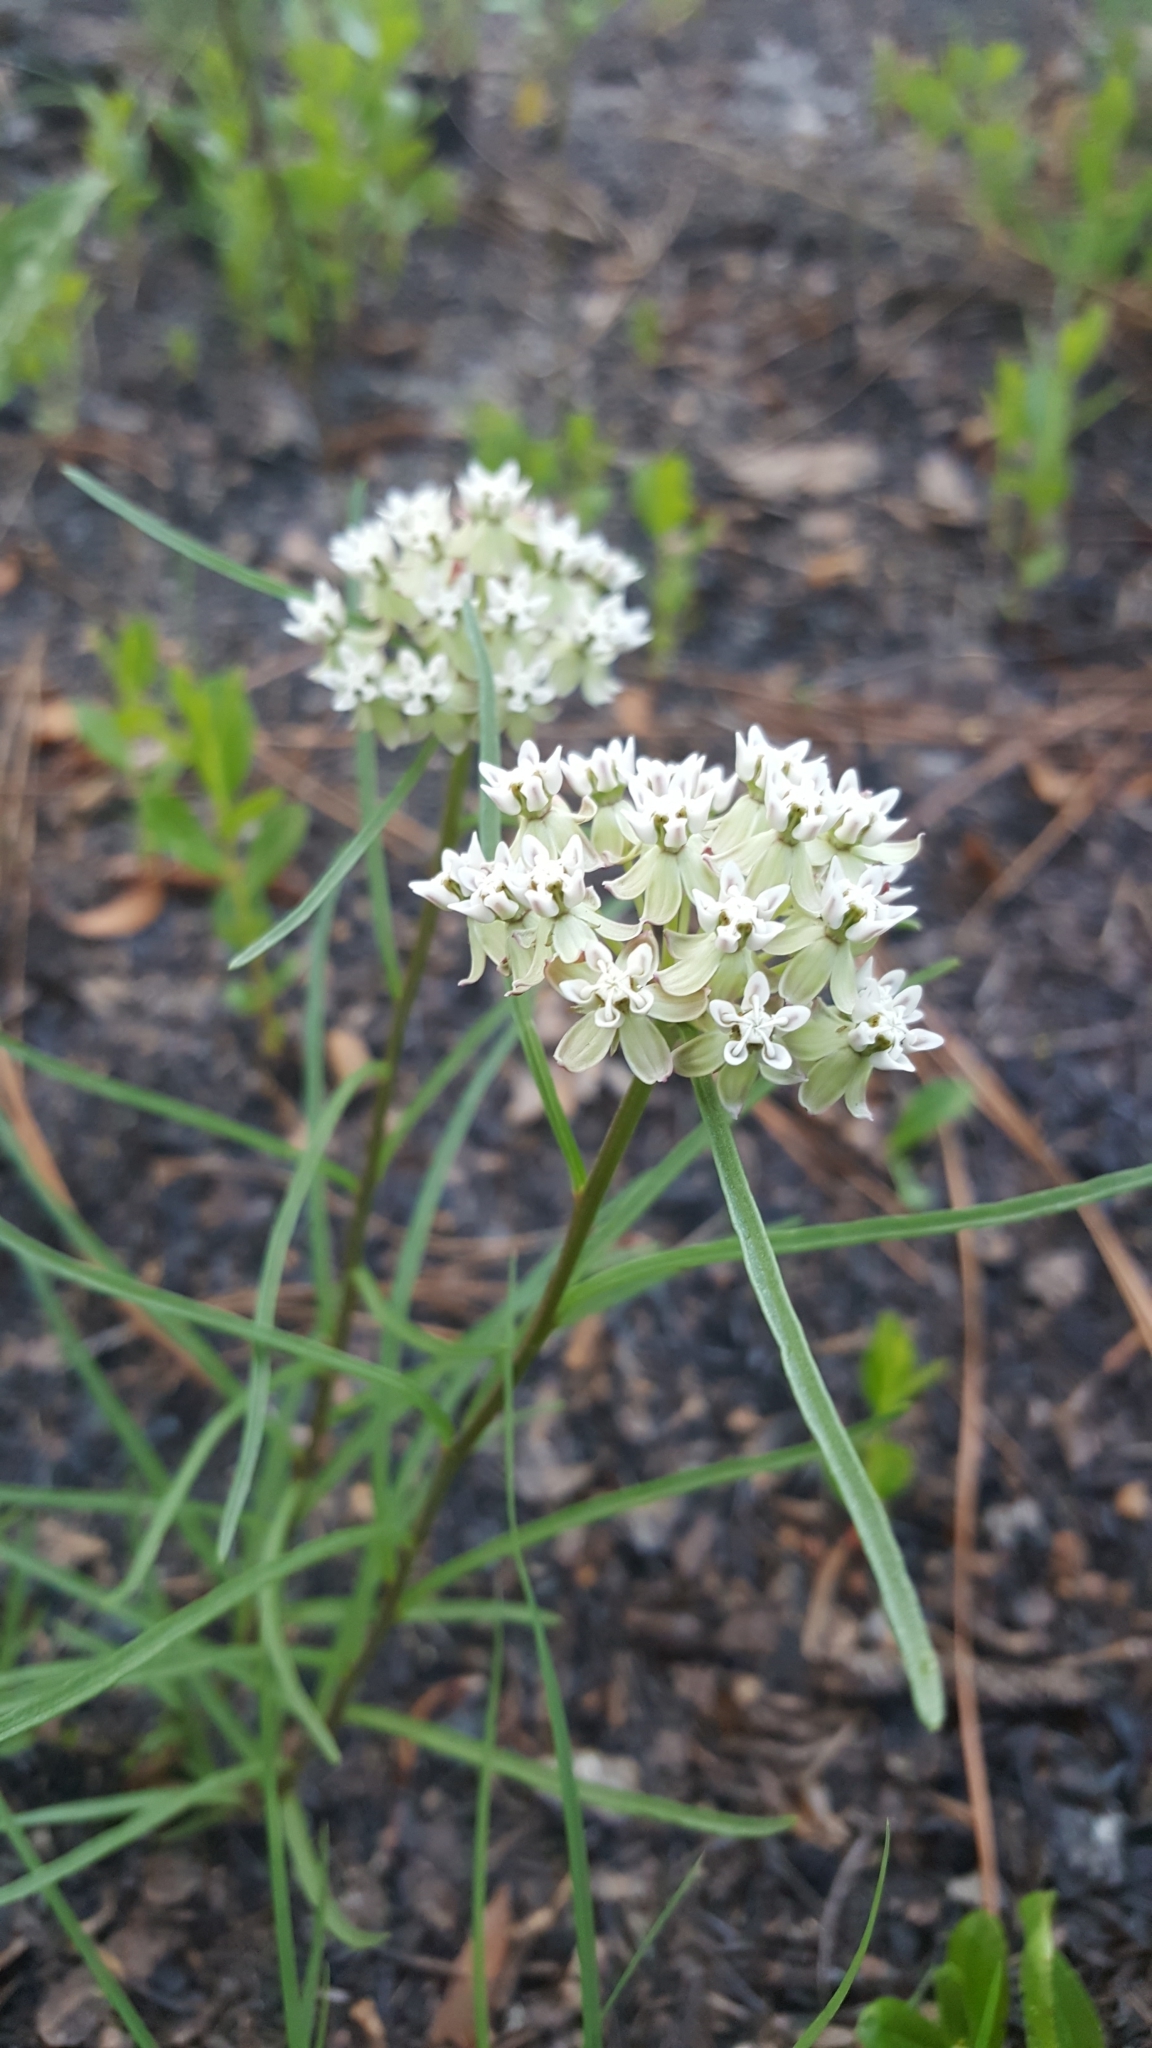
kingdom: Plantae
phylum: Tracheophyta
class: Magnoliopsida
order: Gentianales
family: Apocynaceae
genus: Asclepias
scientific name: Asclepias michauxii
